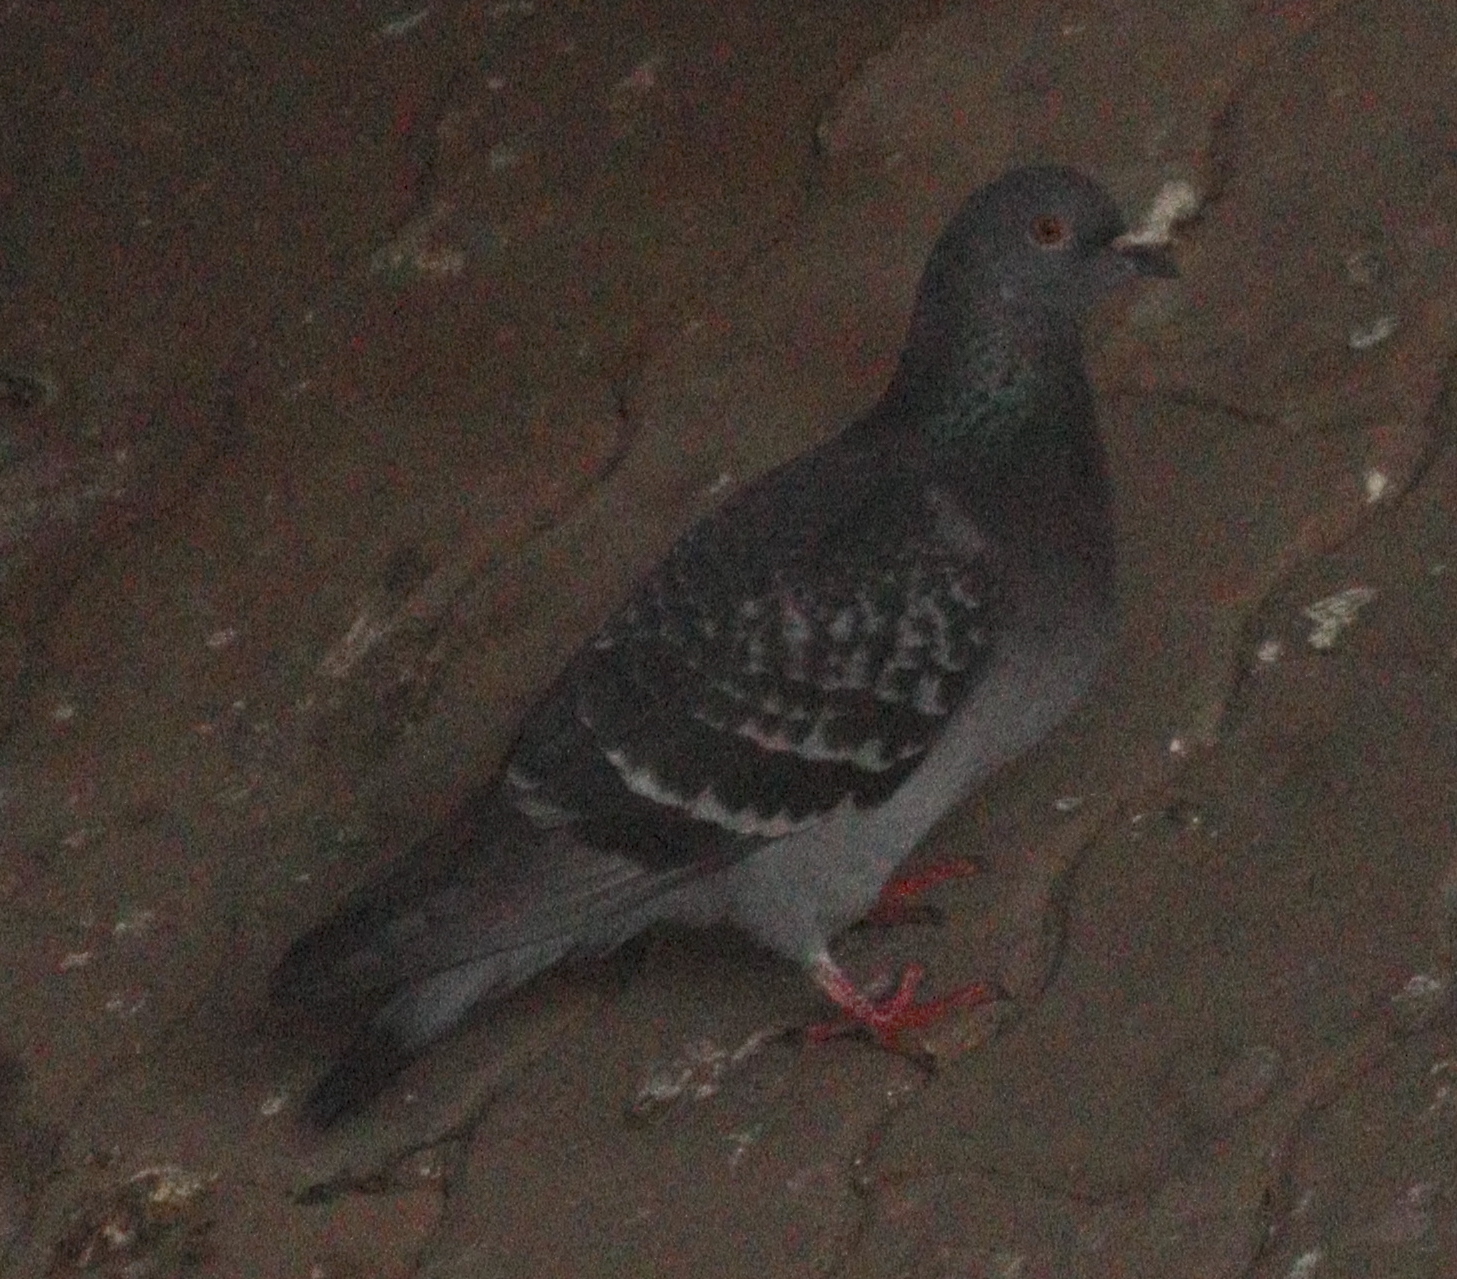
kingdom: Animalia
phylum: Chordata
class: Aves
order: Columbiformes
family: Columbidae
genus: Columba
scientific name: Columba livia
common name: Rock pigeon
